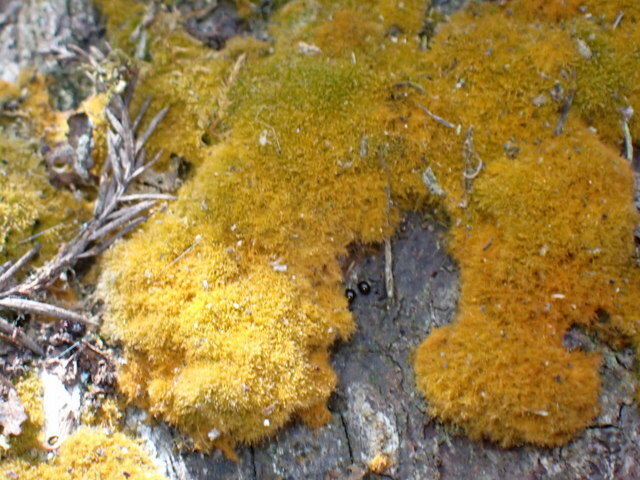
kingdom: Fungi
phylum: Ascomycota
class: Arthoniomycetes
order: Arthoniales
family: Chrysotrichaceae
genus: Chrysothrix
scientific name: Chrysothrix xanthina
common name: Common gold-dust
